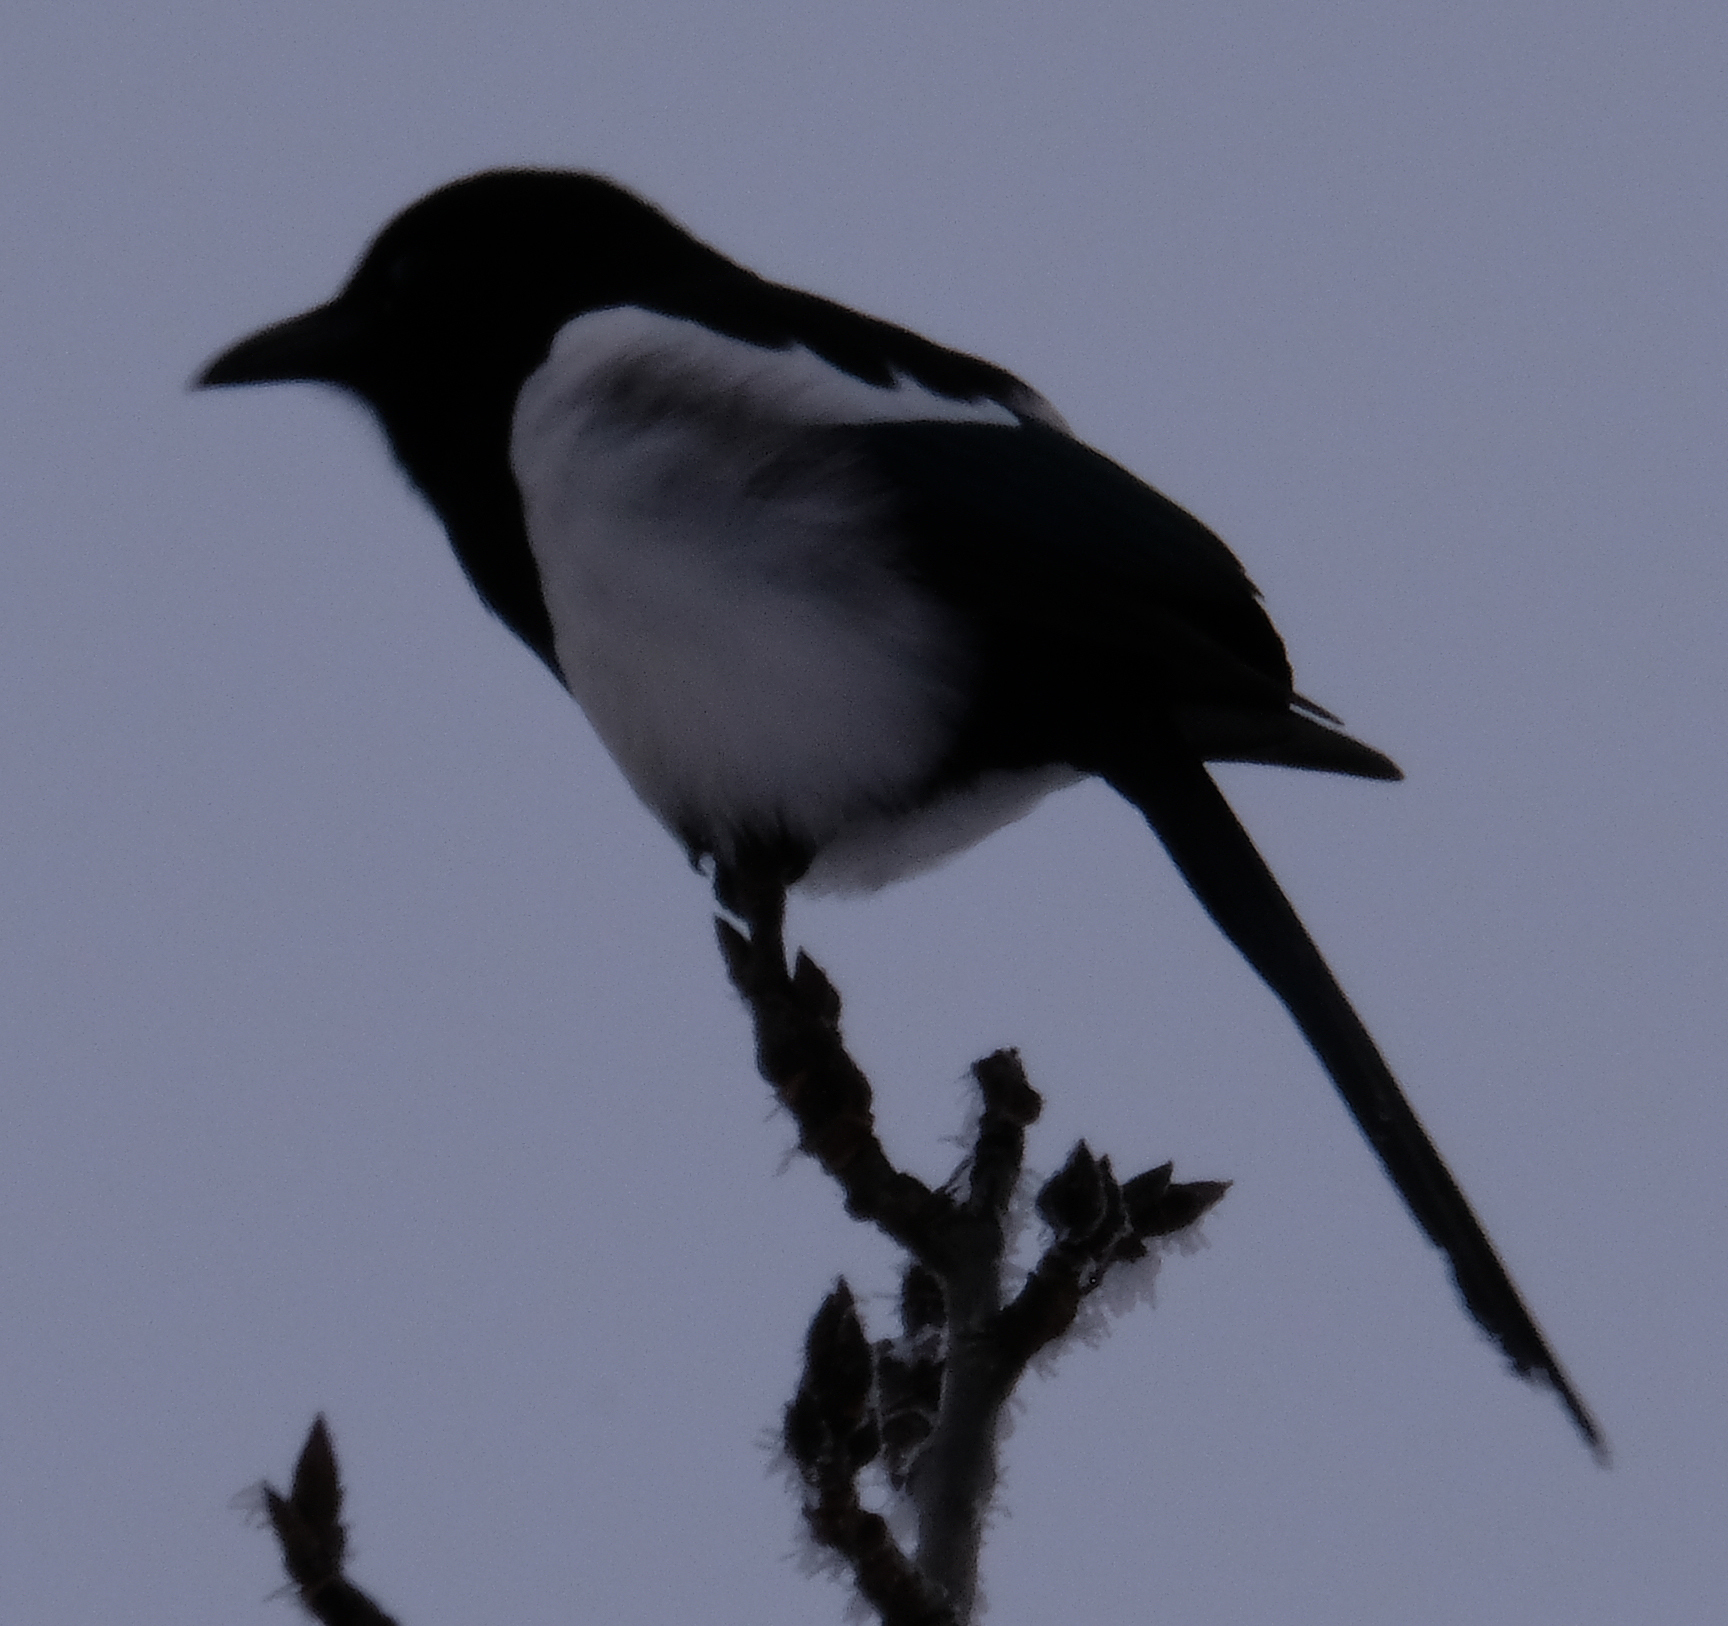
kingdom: Animalia
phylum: Chordata
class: Aves
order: Passeriformes
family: Corvidae
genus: Pica
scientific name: Pica hudsonia
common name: Black-billed magpie
